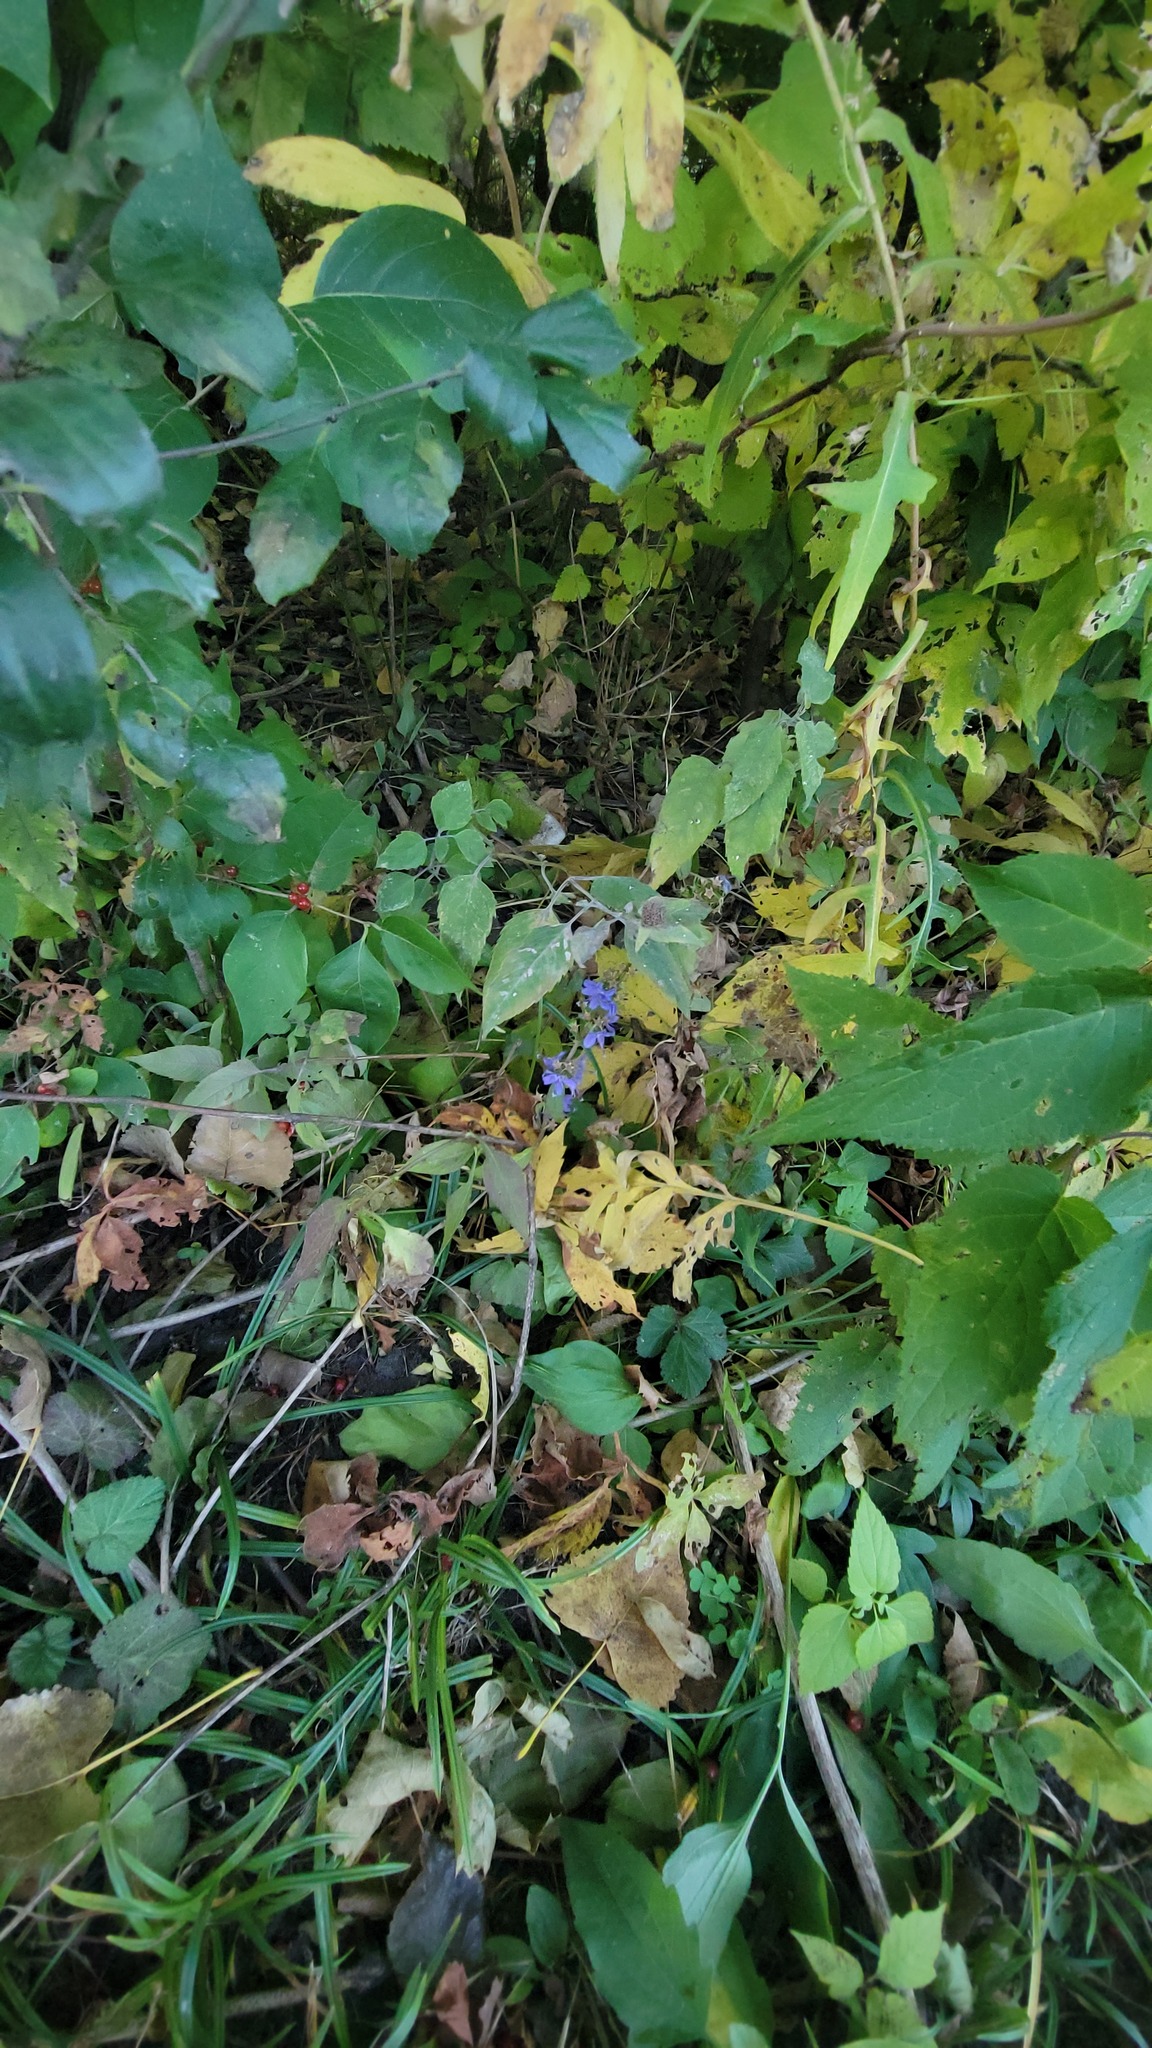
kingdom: Plantae
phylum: Tracheophyta
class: Magnoliopsida
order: Asterales
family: Campanulaceae
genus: Campanulastrum
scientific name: Campanulastrum americanum
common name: American bellflower
